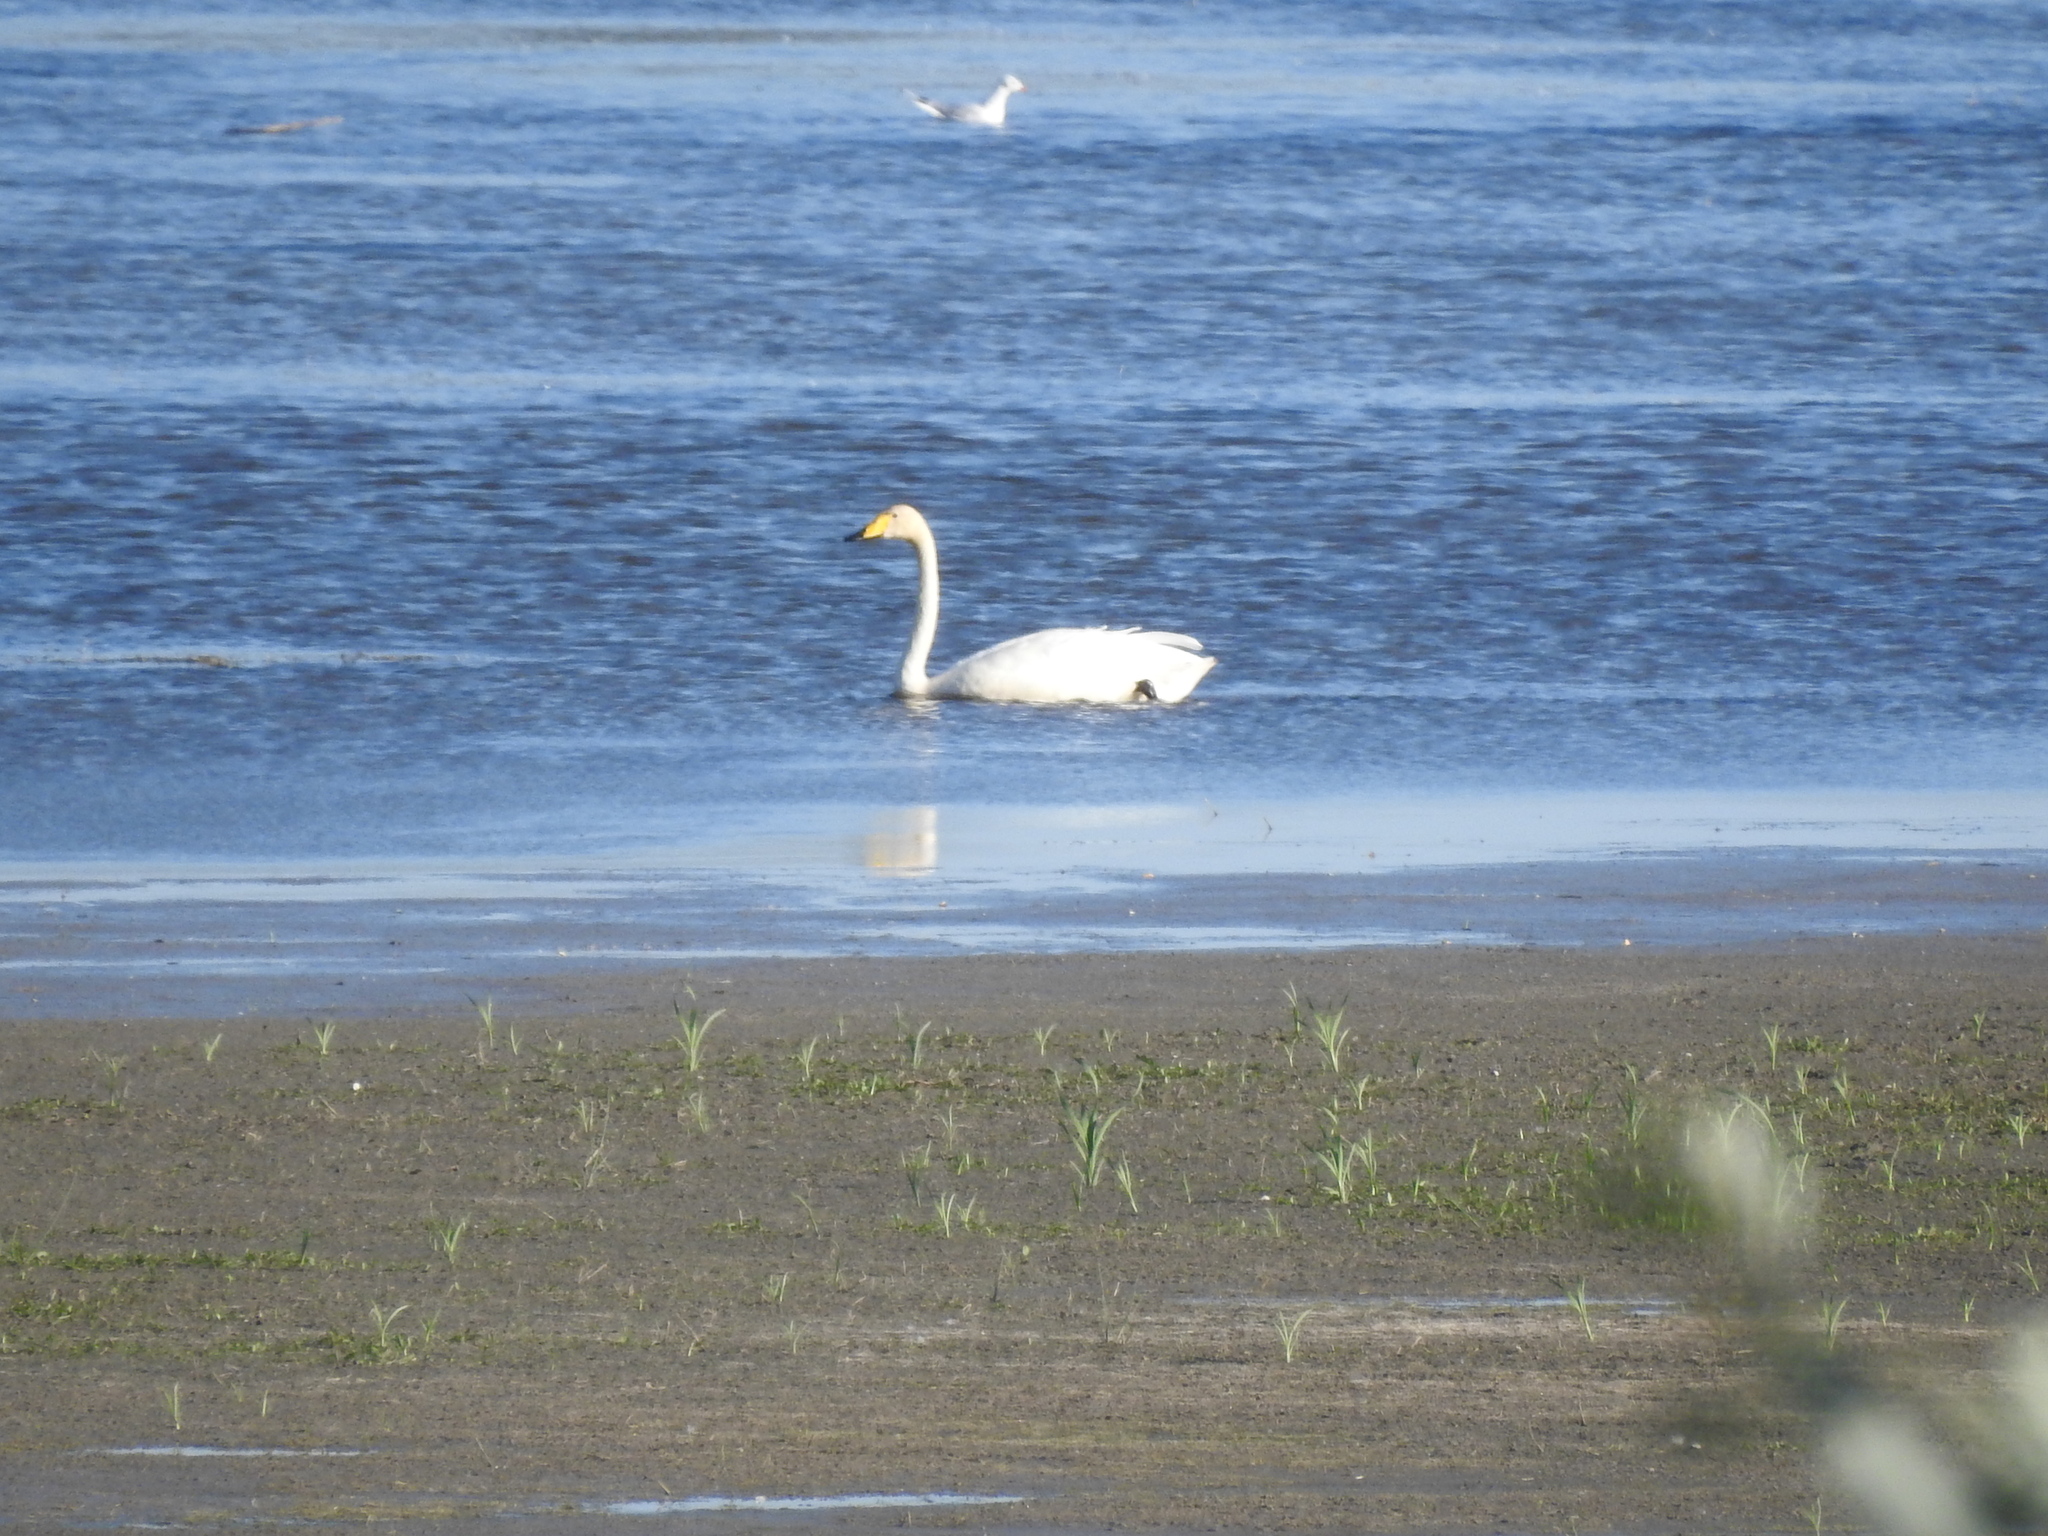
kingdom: Animalia
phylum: Chordata
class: Aves
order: Anseriformes
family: Anatidae
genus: Cygnus
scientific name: Cygnus cygnus
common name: Whooper swan
